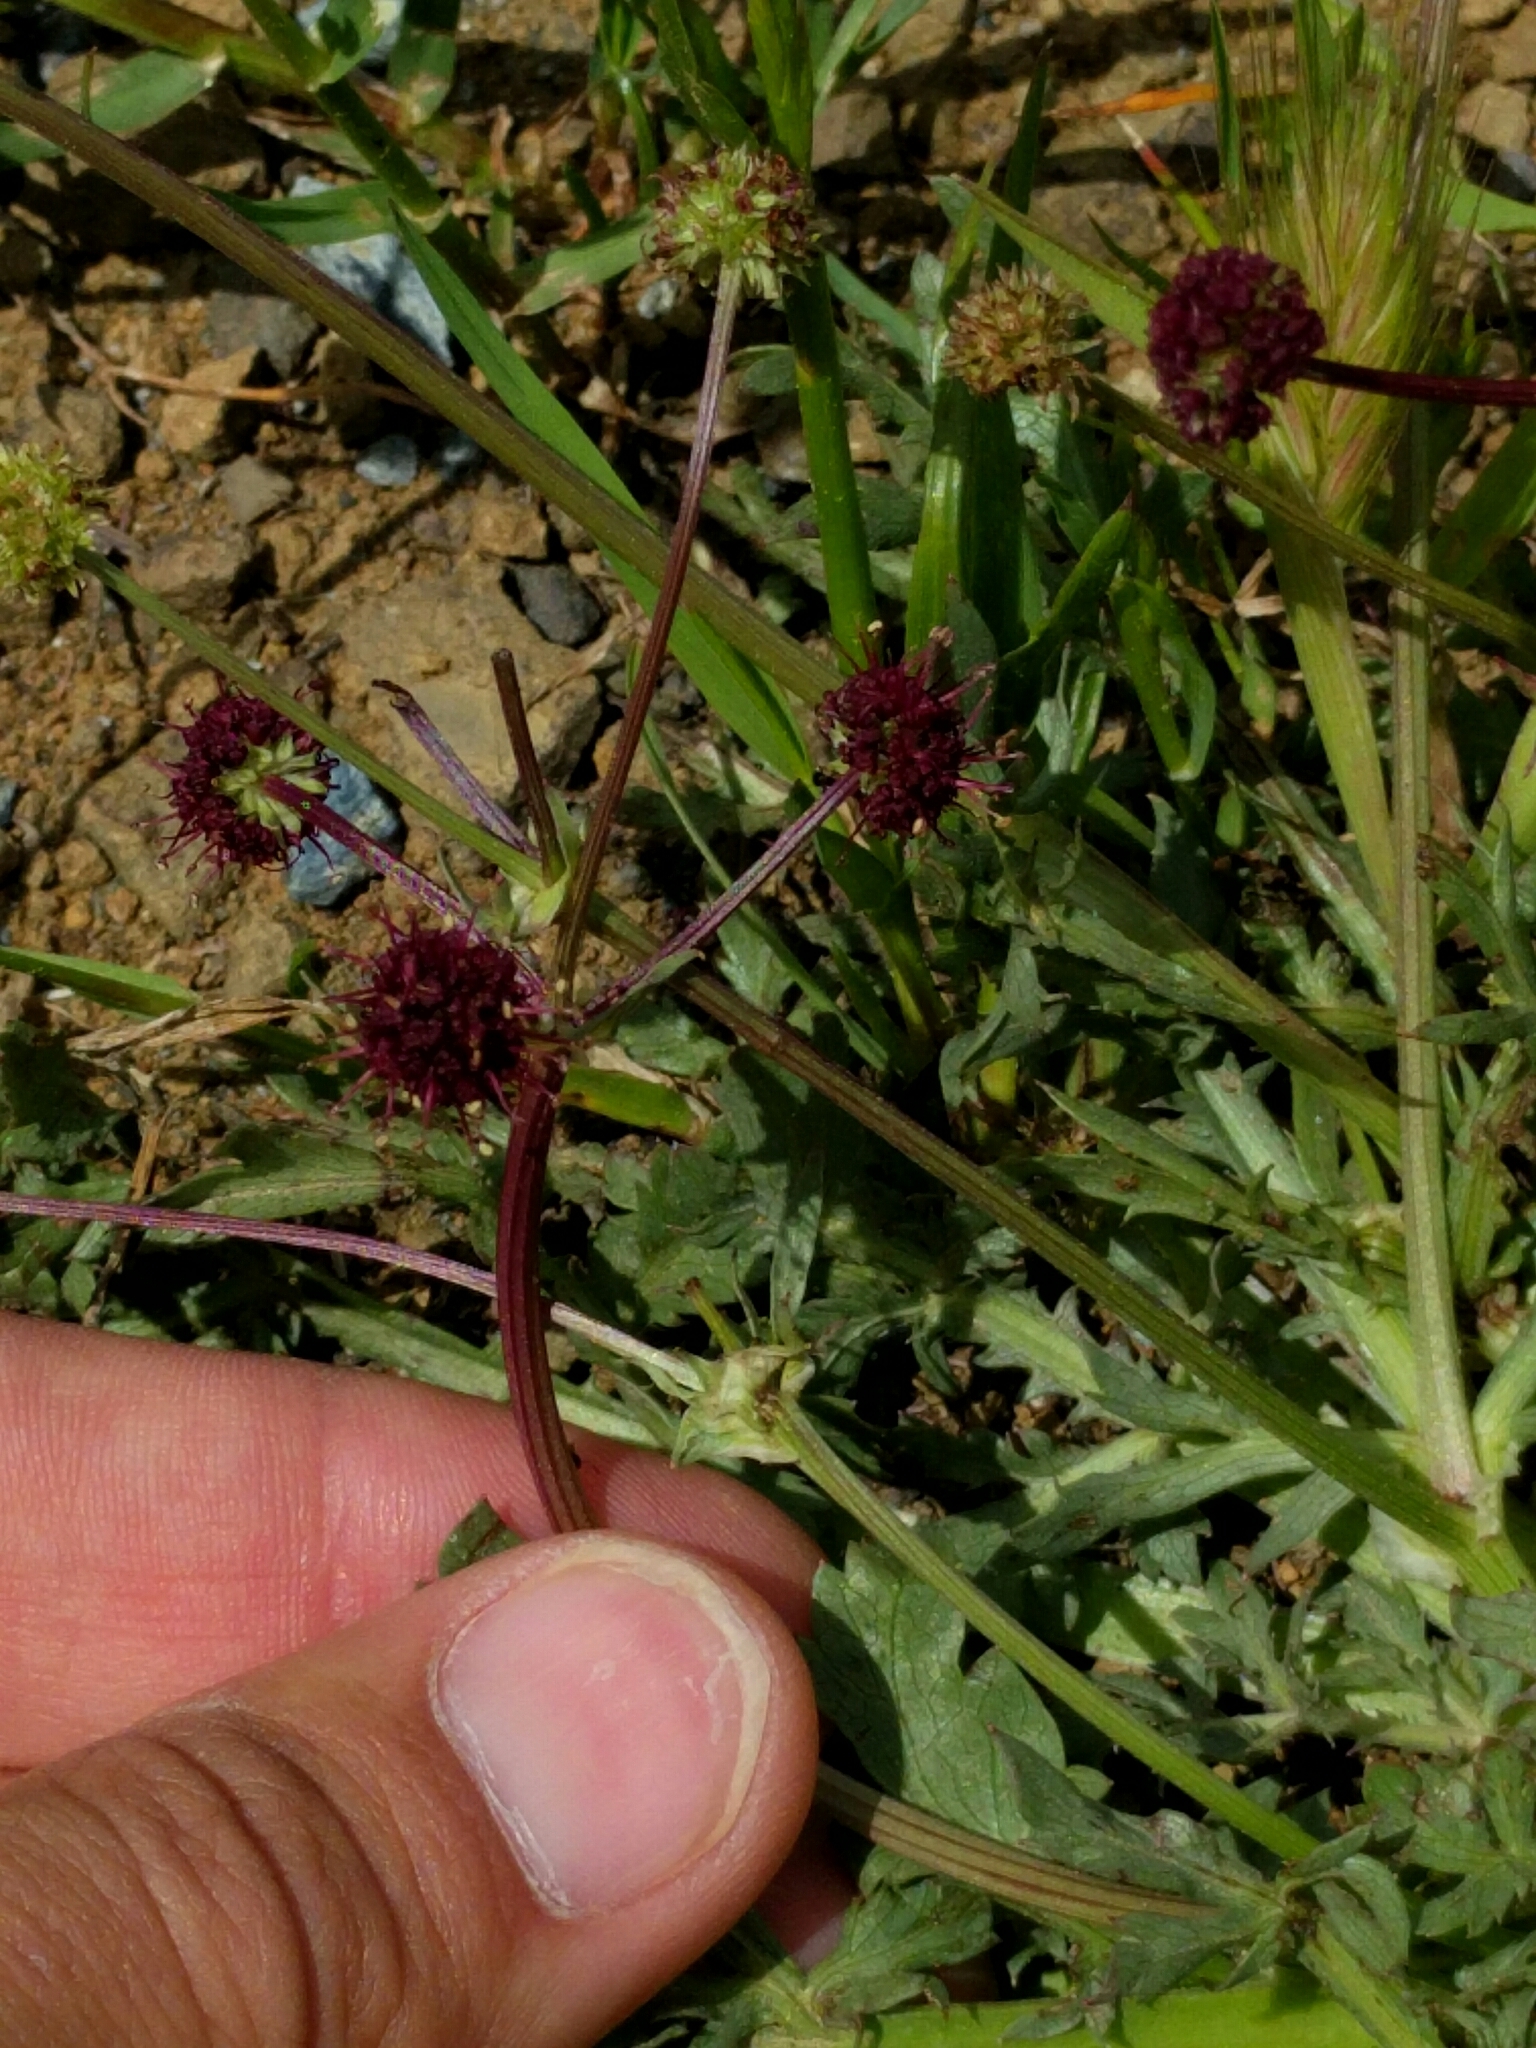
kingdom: Plantae
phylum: Tracheophyta
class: Magnoliopsida
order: Apiales
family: Apiaceae
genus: Sanicula
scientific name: Sanicula bipinnatifida
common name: Shoe-buttons
